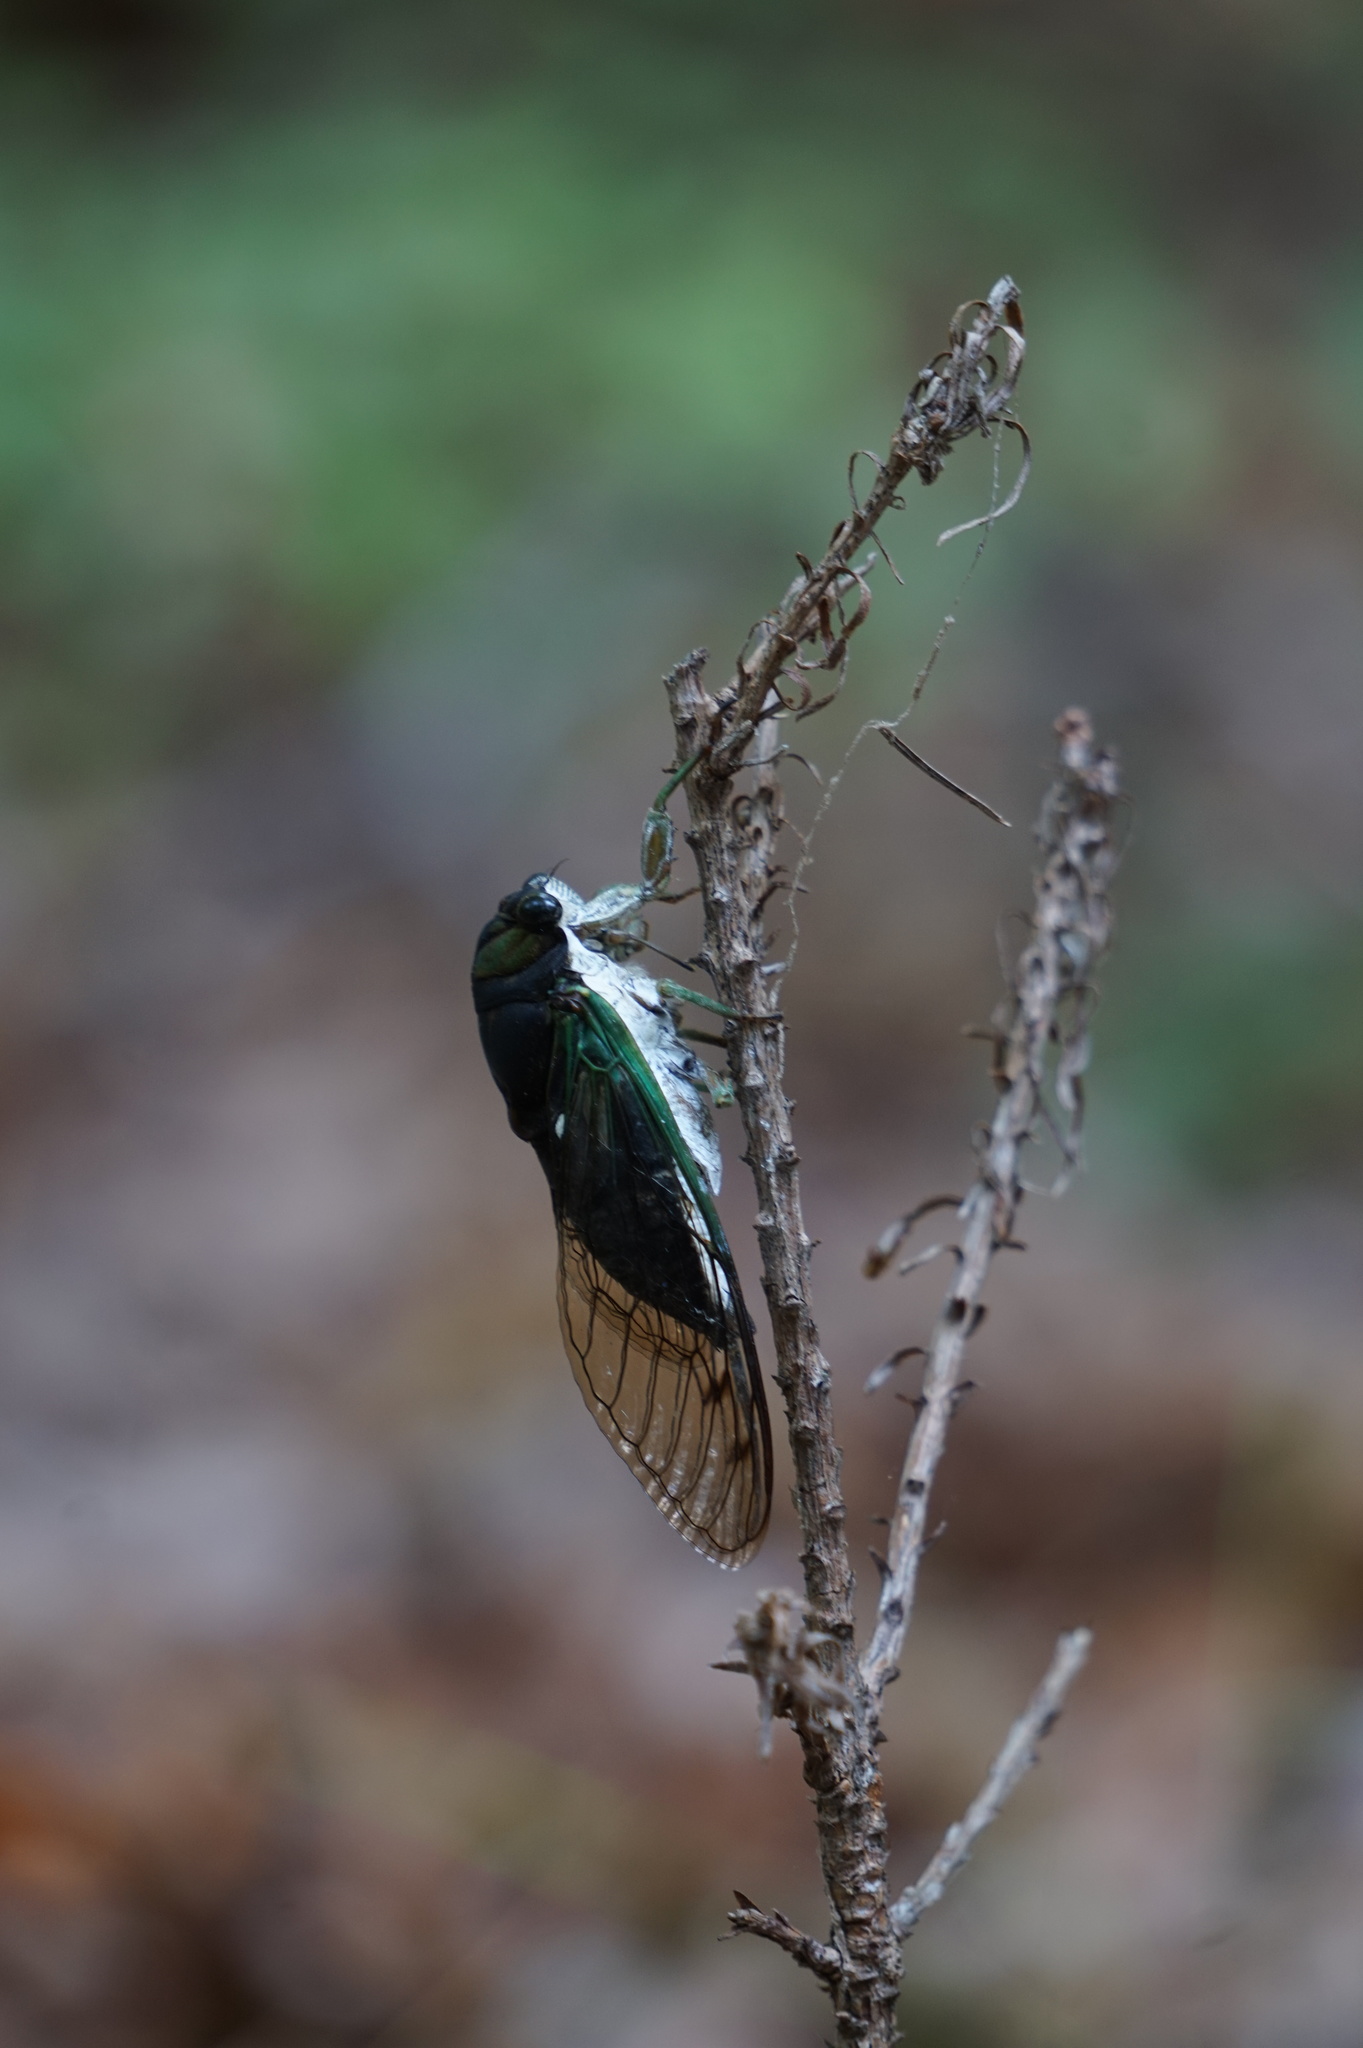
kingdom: Animalia
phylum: Arthropoda
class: Insecta
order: Hemiptera
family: Cicadidae
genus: Neotibicen
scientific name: Neotibicen tibicen
